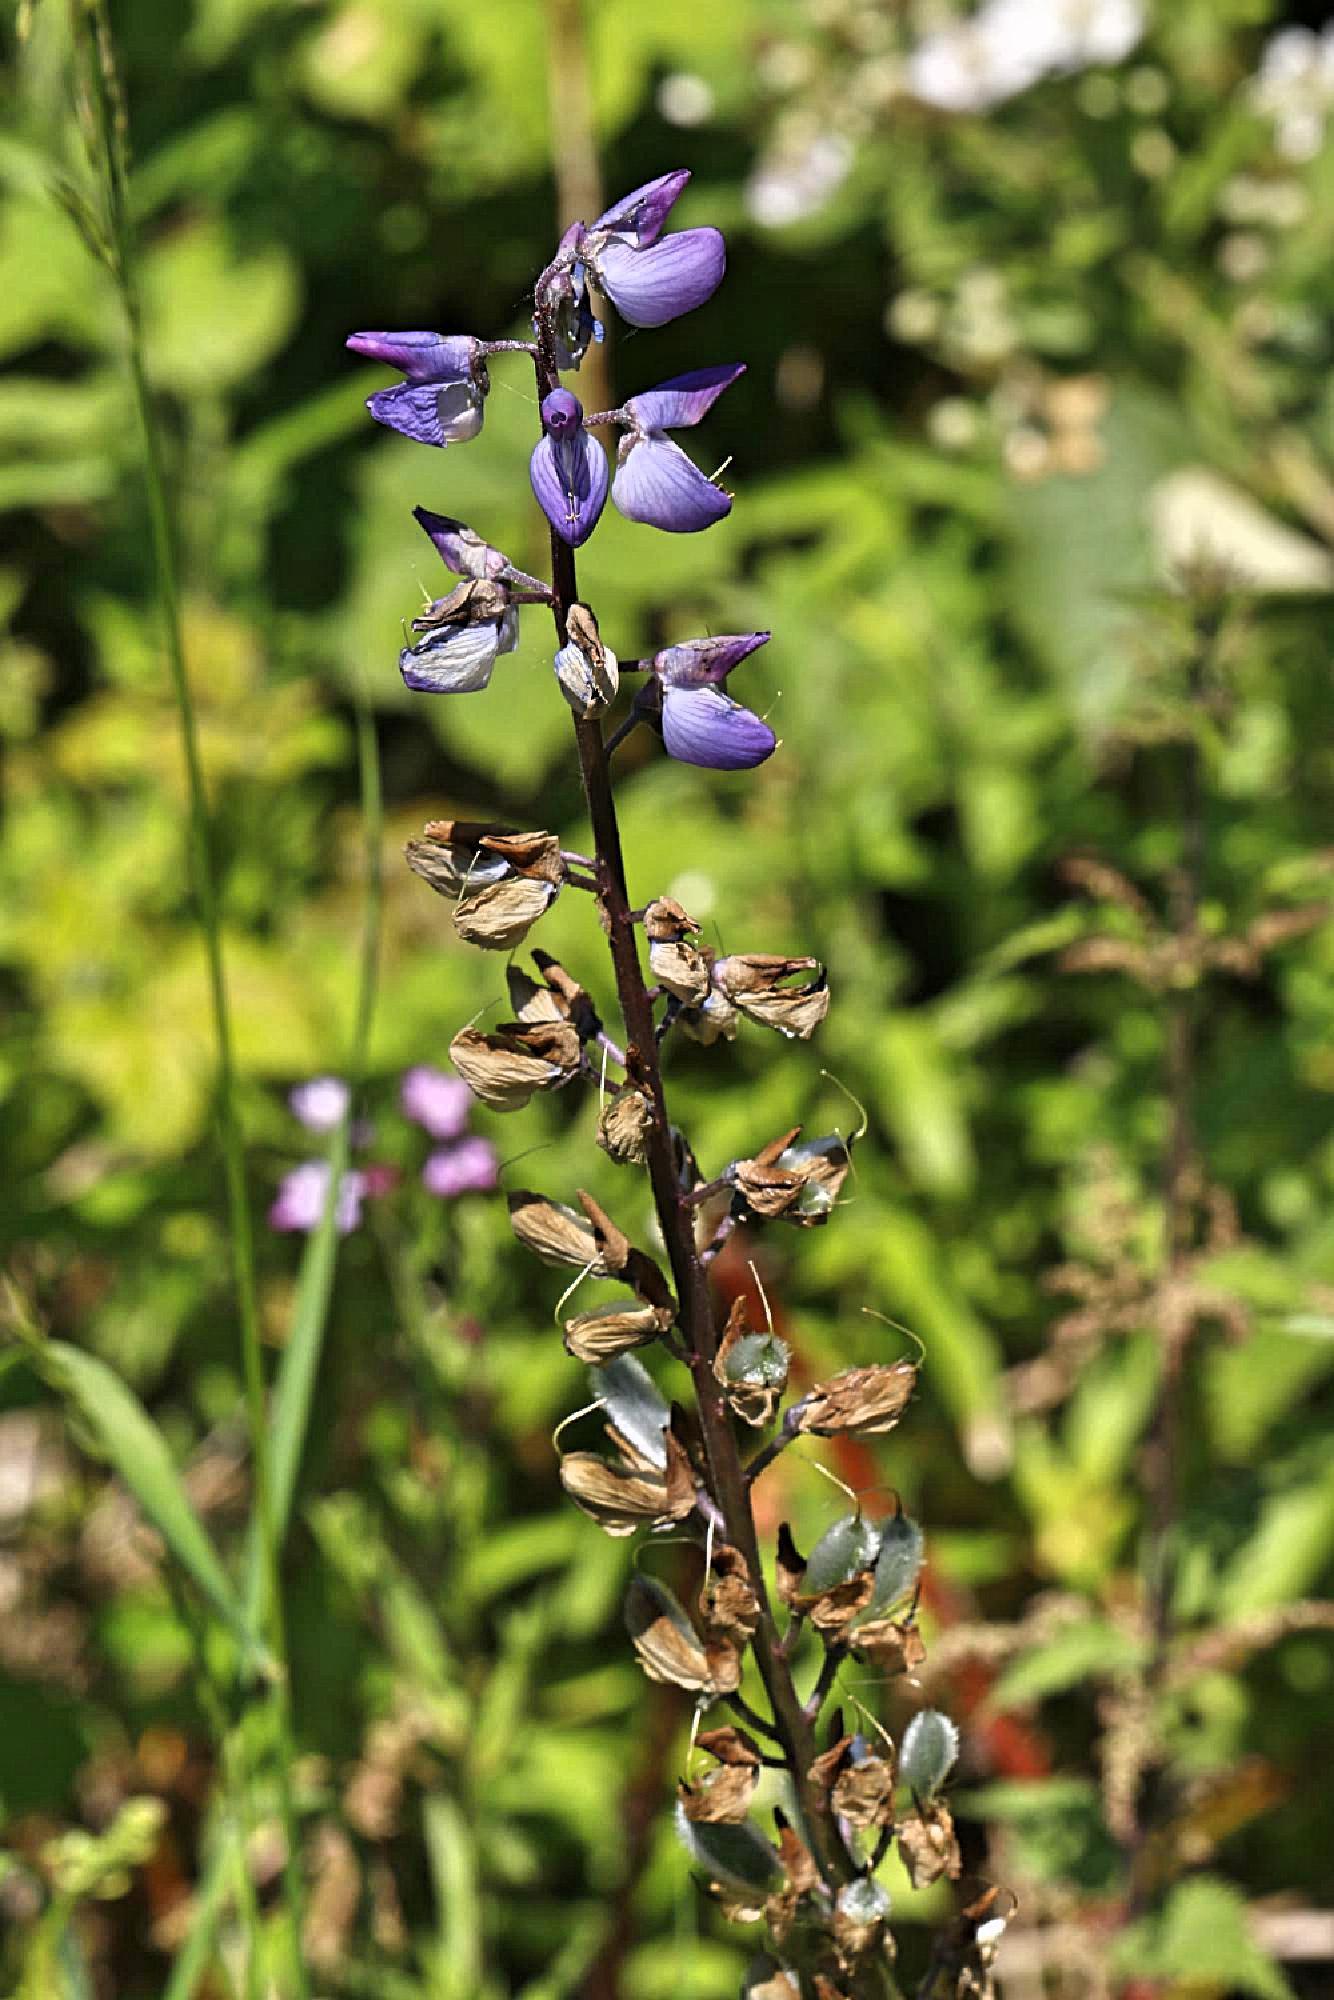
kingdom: Plantae
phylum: Tracheophyta
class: Magnoliopsida
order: Fabales
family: Fabaceae
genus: Lupinus
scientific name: Lupinus regalis
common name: Russell lupin
